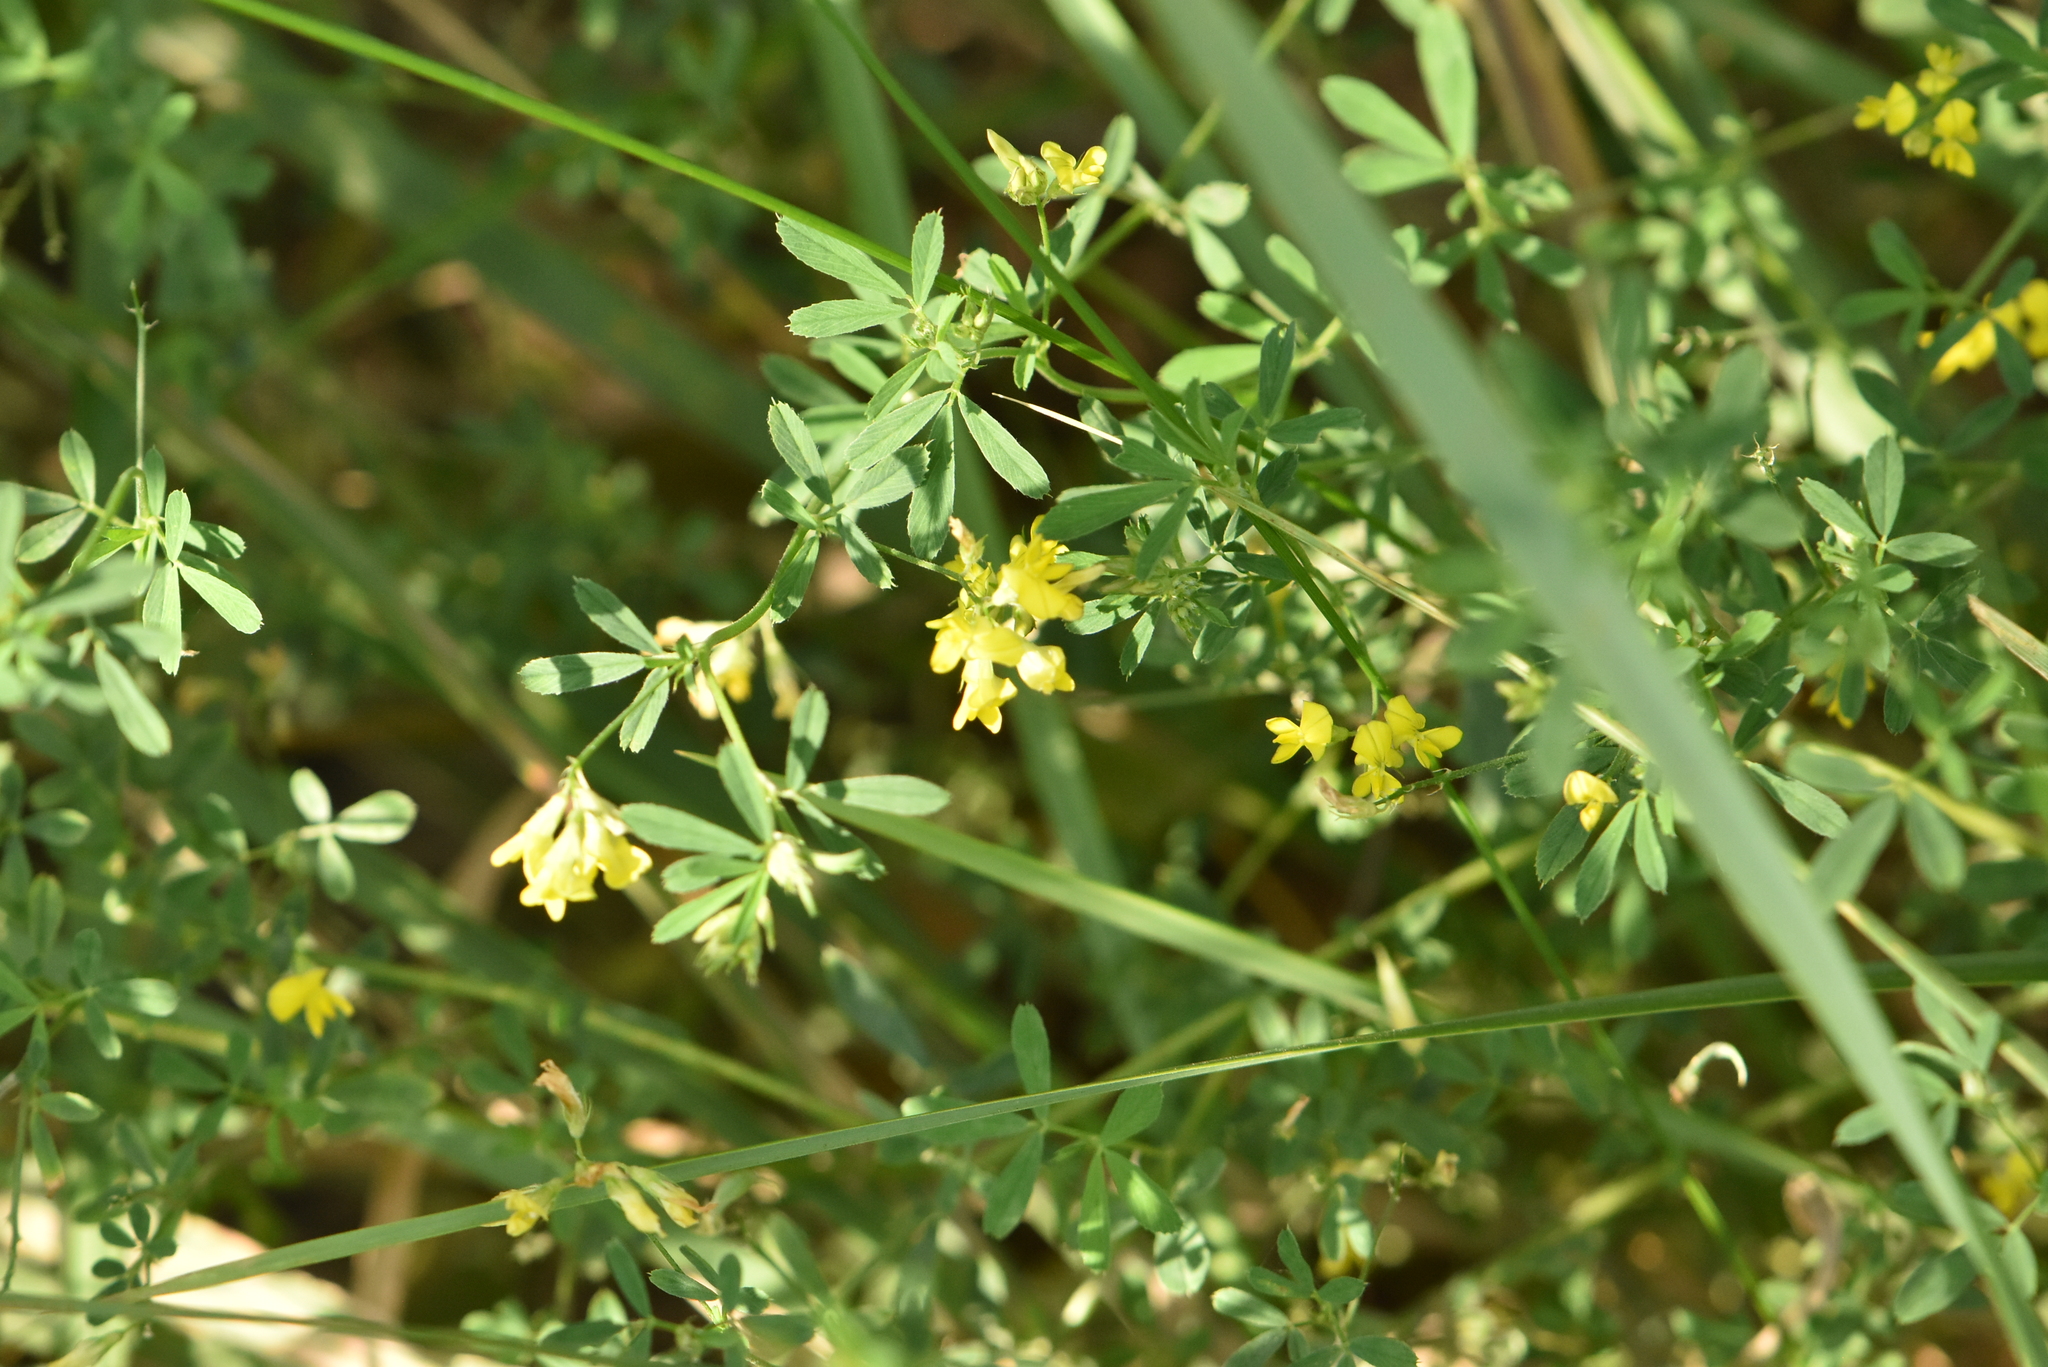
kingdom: Plantae
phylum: Tracheophyta
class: Magnoliopsida
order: Fabales
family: Fabaceae
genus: Medicago
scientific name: Medicago falcata
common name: Sickle medick
